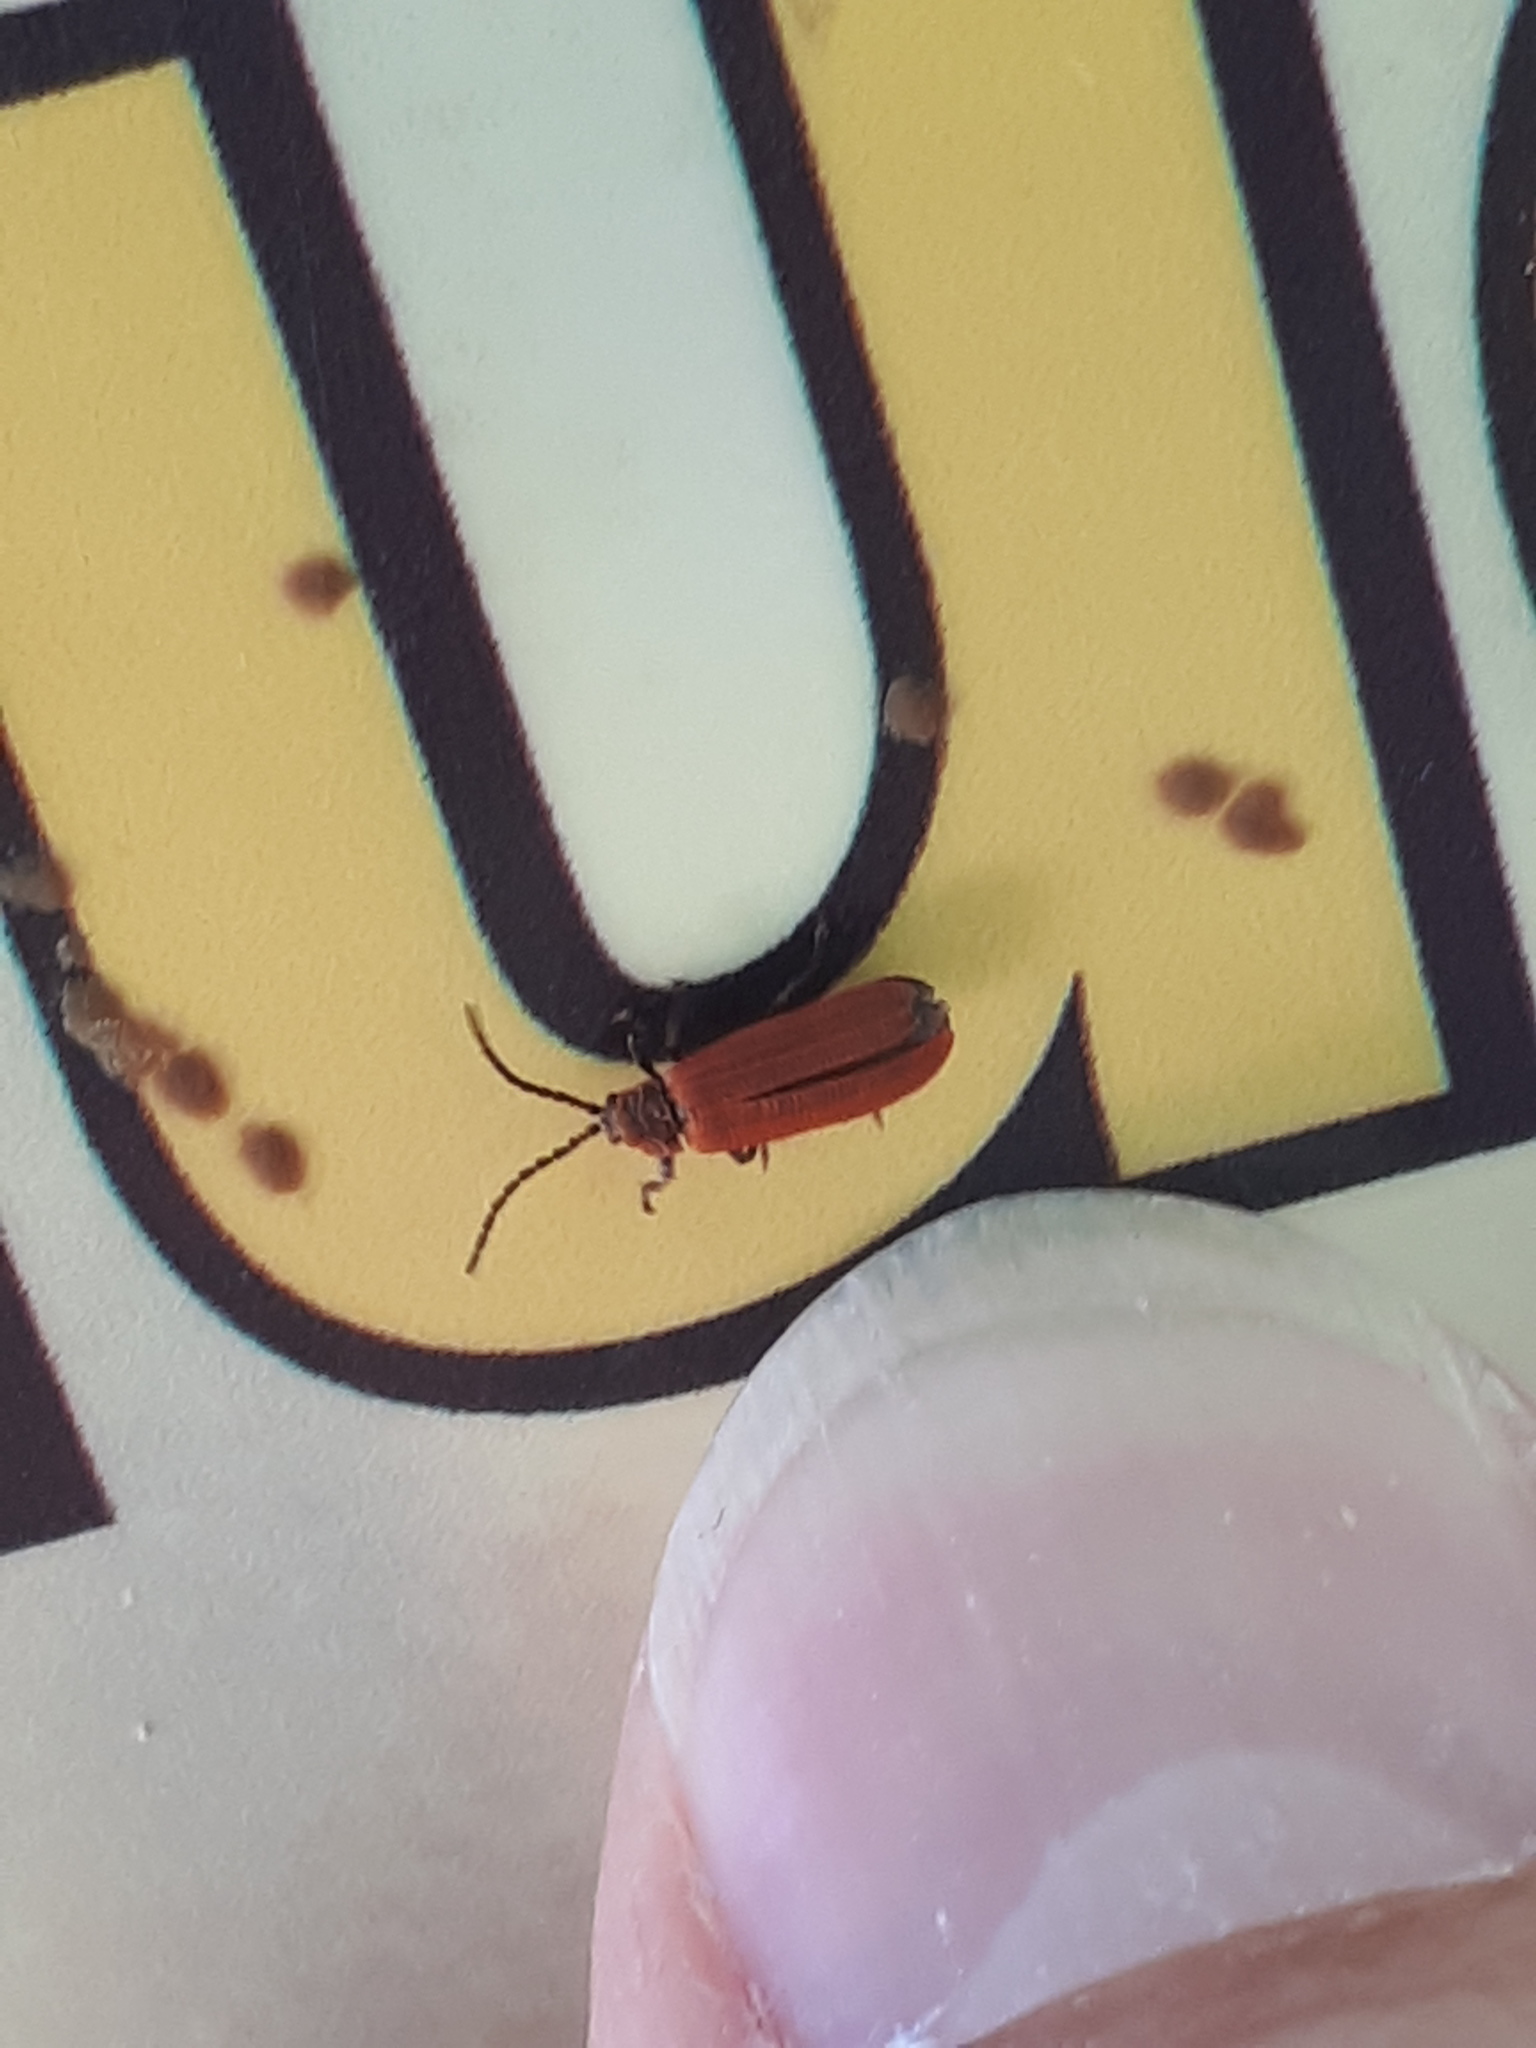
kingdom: Animalia
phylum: Arthropoda
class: Insecta
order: Coleoptera
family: Lycidae
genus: Lopheros
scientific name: Lopheros rubens
